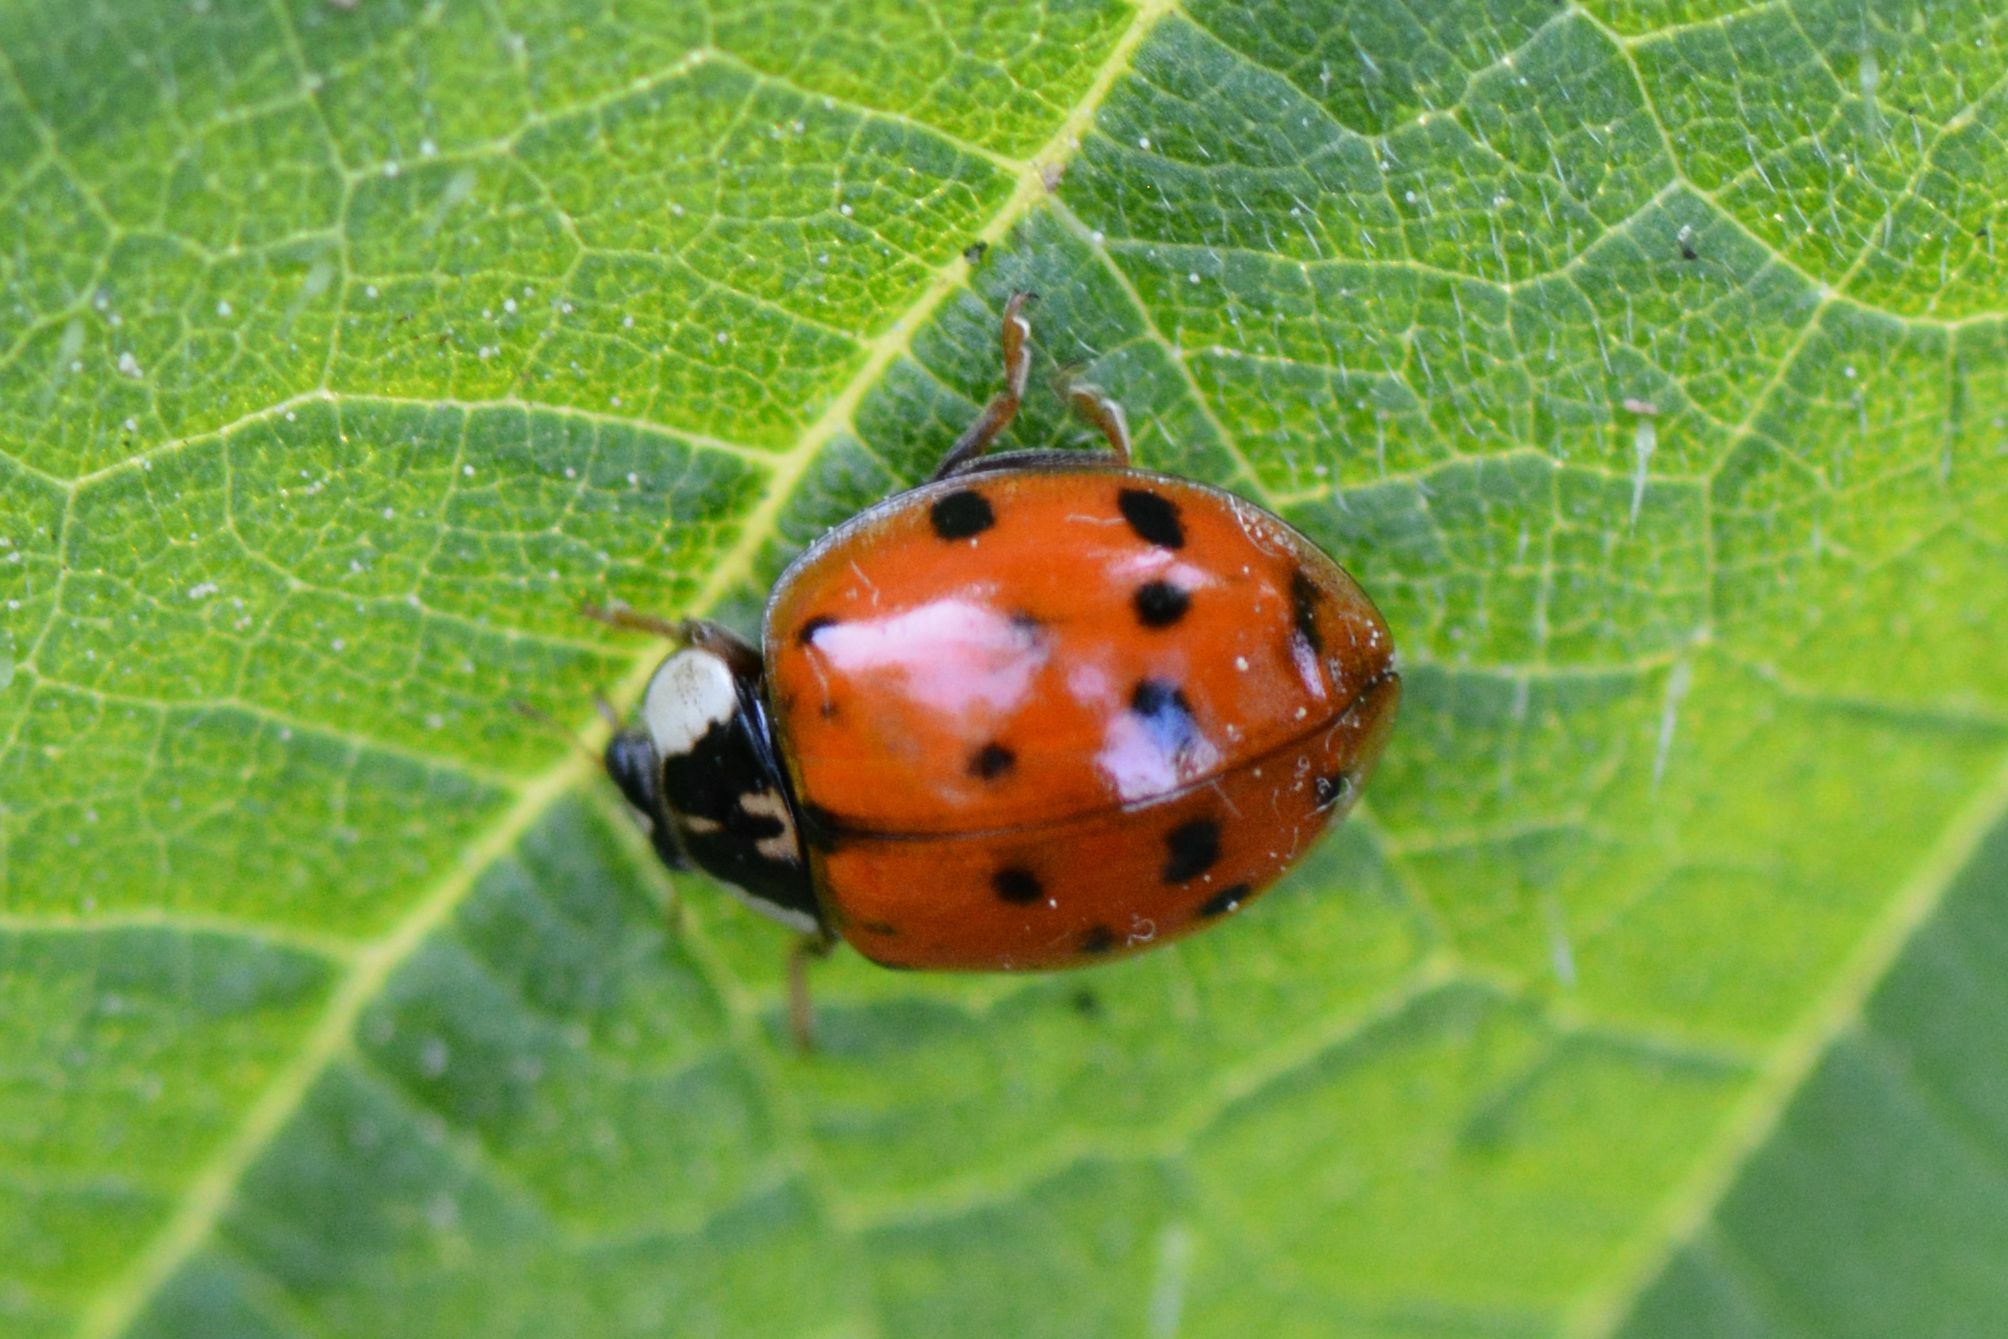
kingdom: Animalia
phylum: Arthropoda
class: Insecta
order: Coleoptera
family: Coccinellidae
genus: Harmonia
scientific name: Harmonia axyridis
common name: Harlequin ladybird
